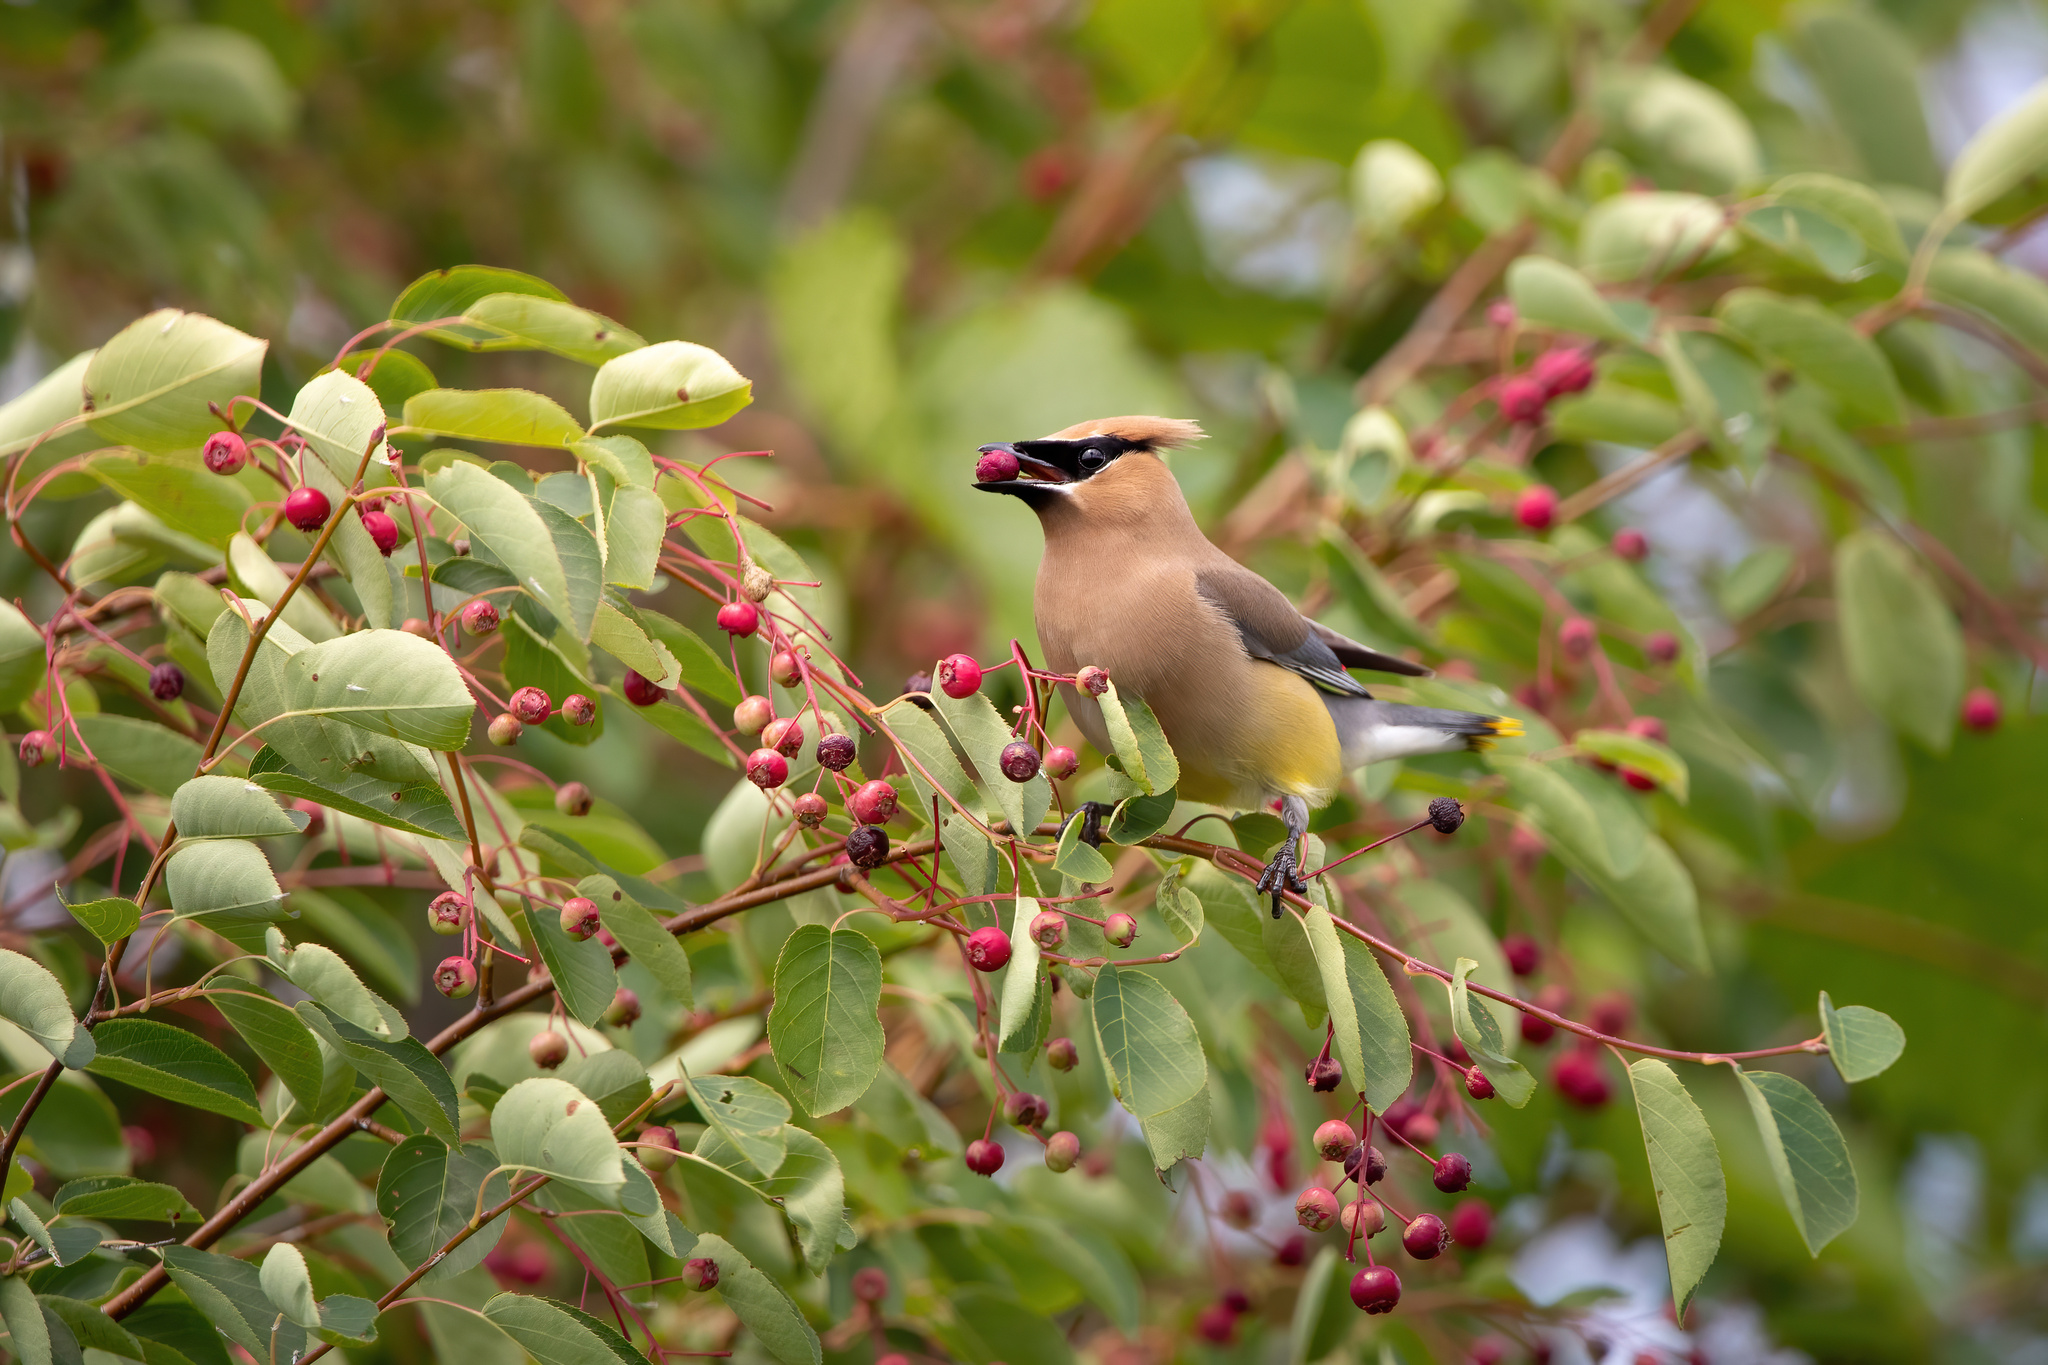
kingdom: Animalia
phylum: Chordata
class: Aves
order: Passeriformes
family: Bombycillidae
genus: Bombycilla
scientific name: Bombycilla cedrorum
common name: Cedar waxwing
